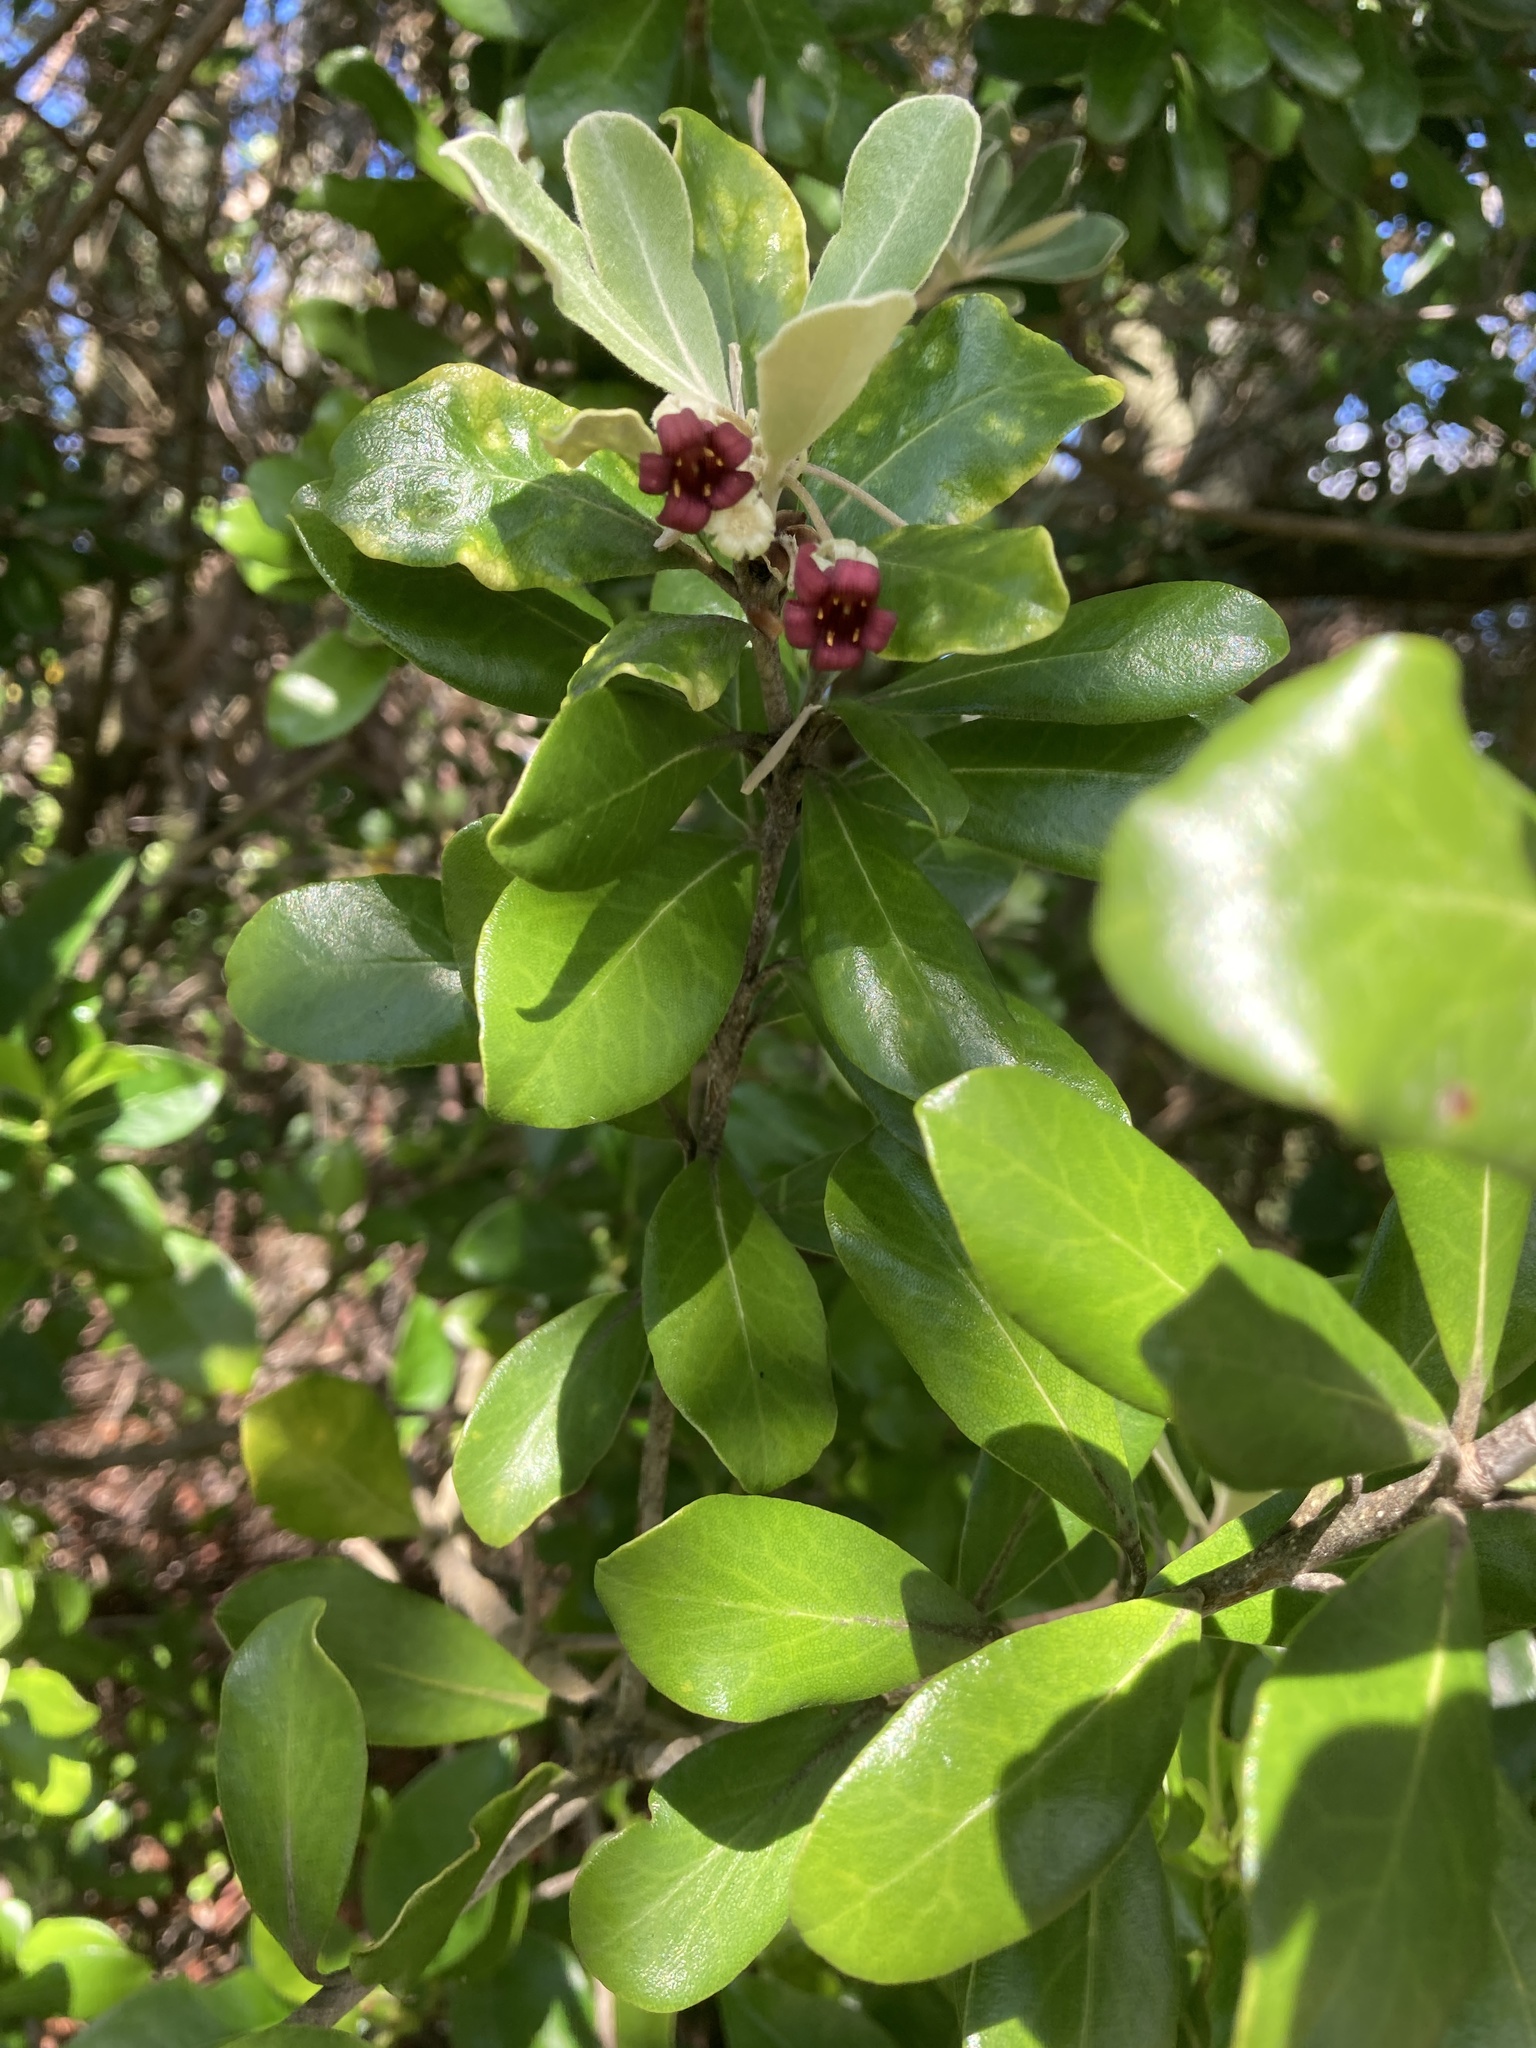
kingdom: Plantae
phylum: Tracheophyta
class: Magnoliopsida
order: Apiales
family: Pittosporaceae
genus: Pittosporum
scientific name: Pittosporum crassifolium
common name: Karo
